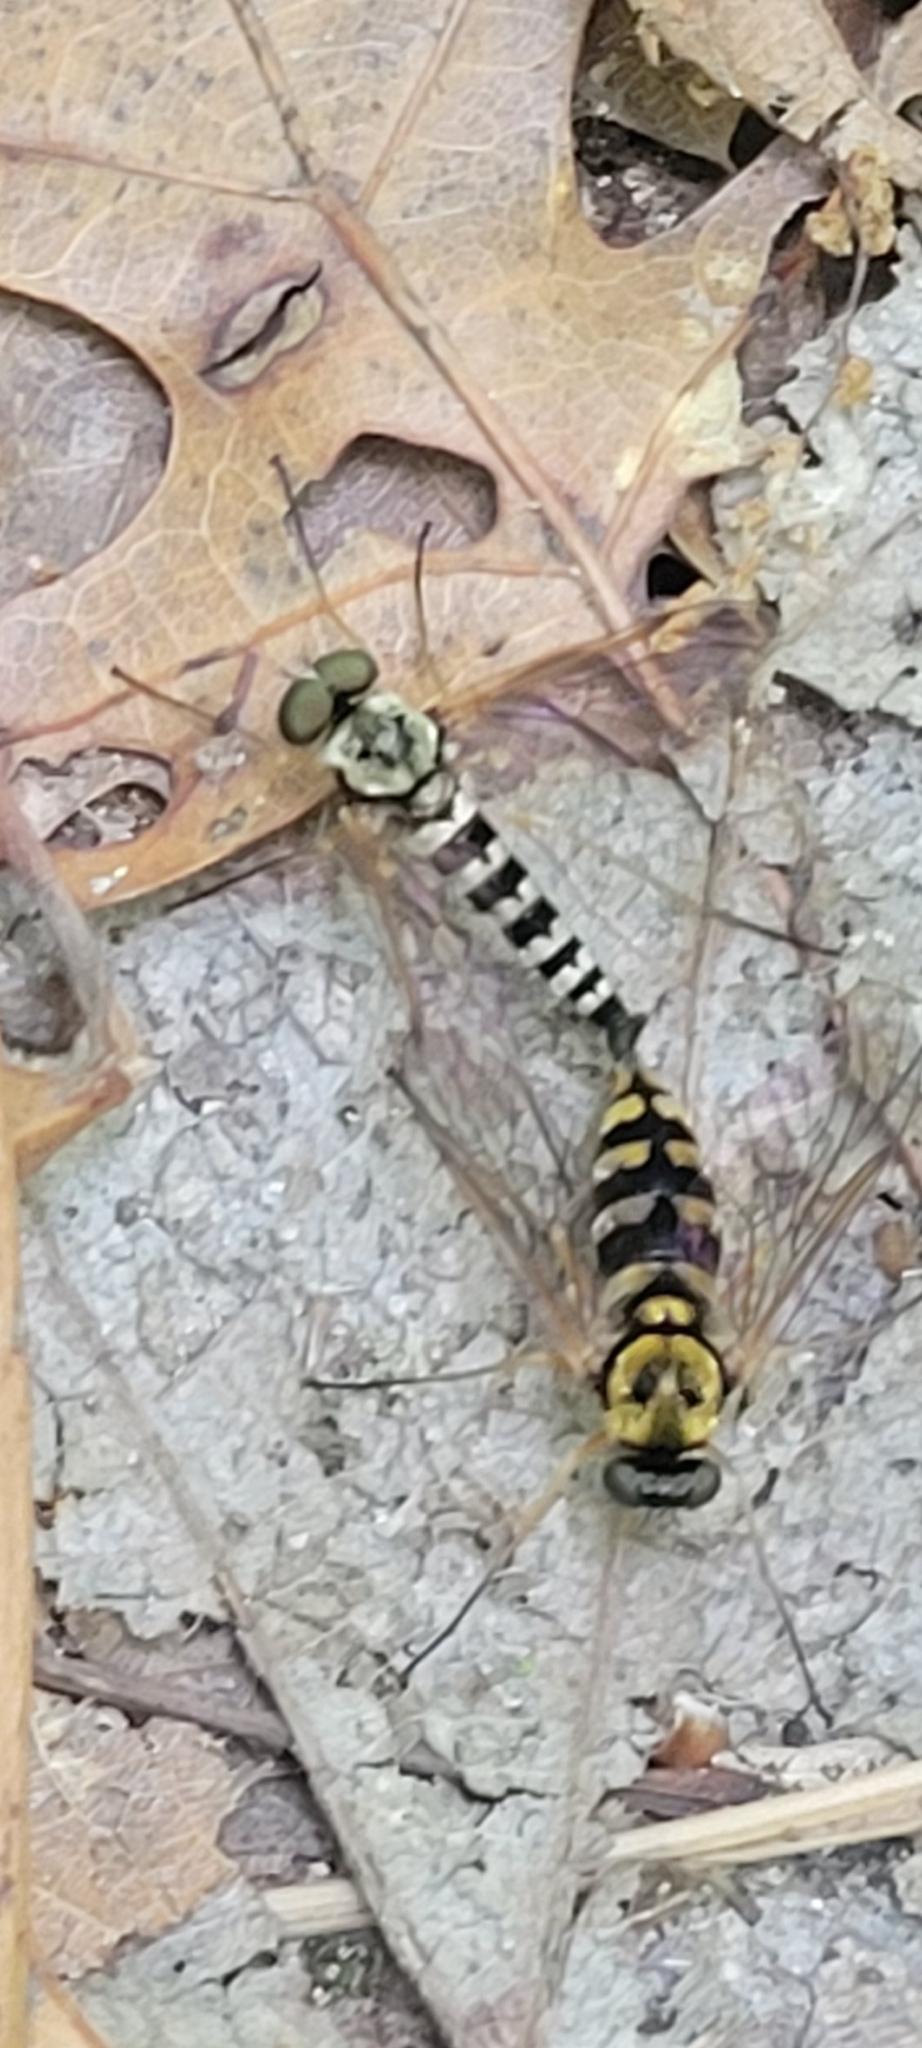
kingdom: Animalia
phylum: Arthropoda
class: Insecta
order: Diptera
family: Rhagionidae
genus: Chrysopilus
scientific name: Chrysopilus ornatus
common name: Ornate snipe fly
